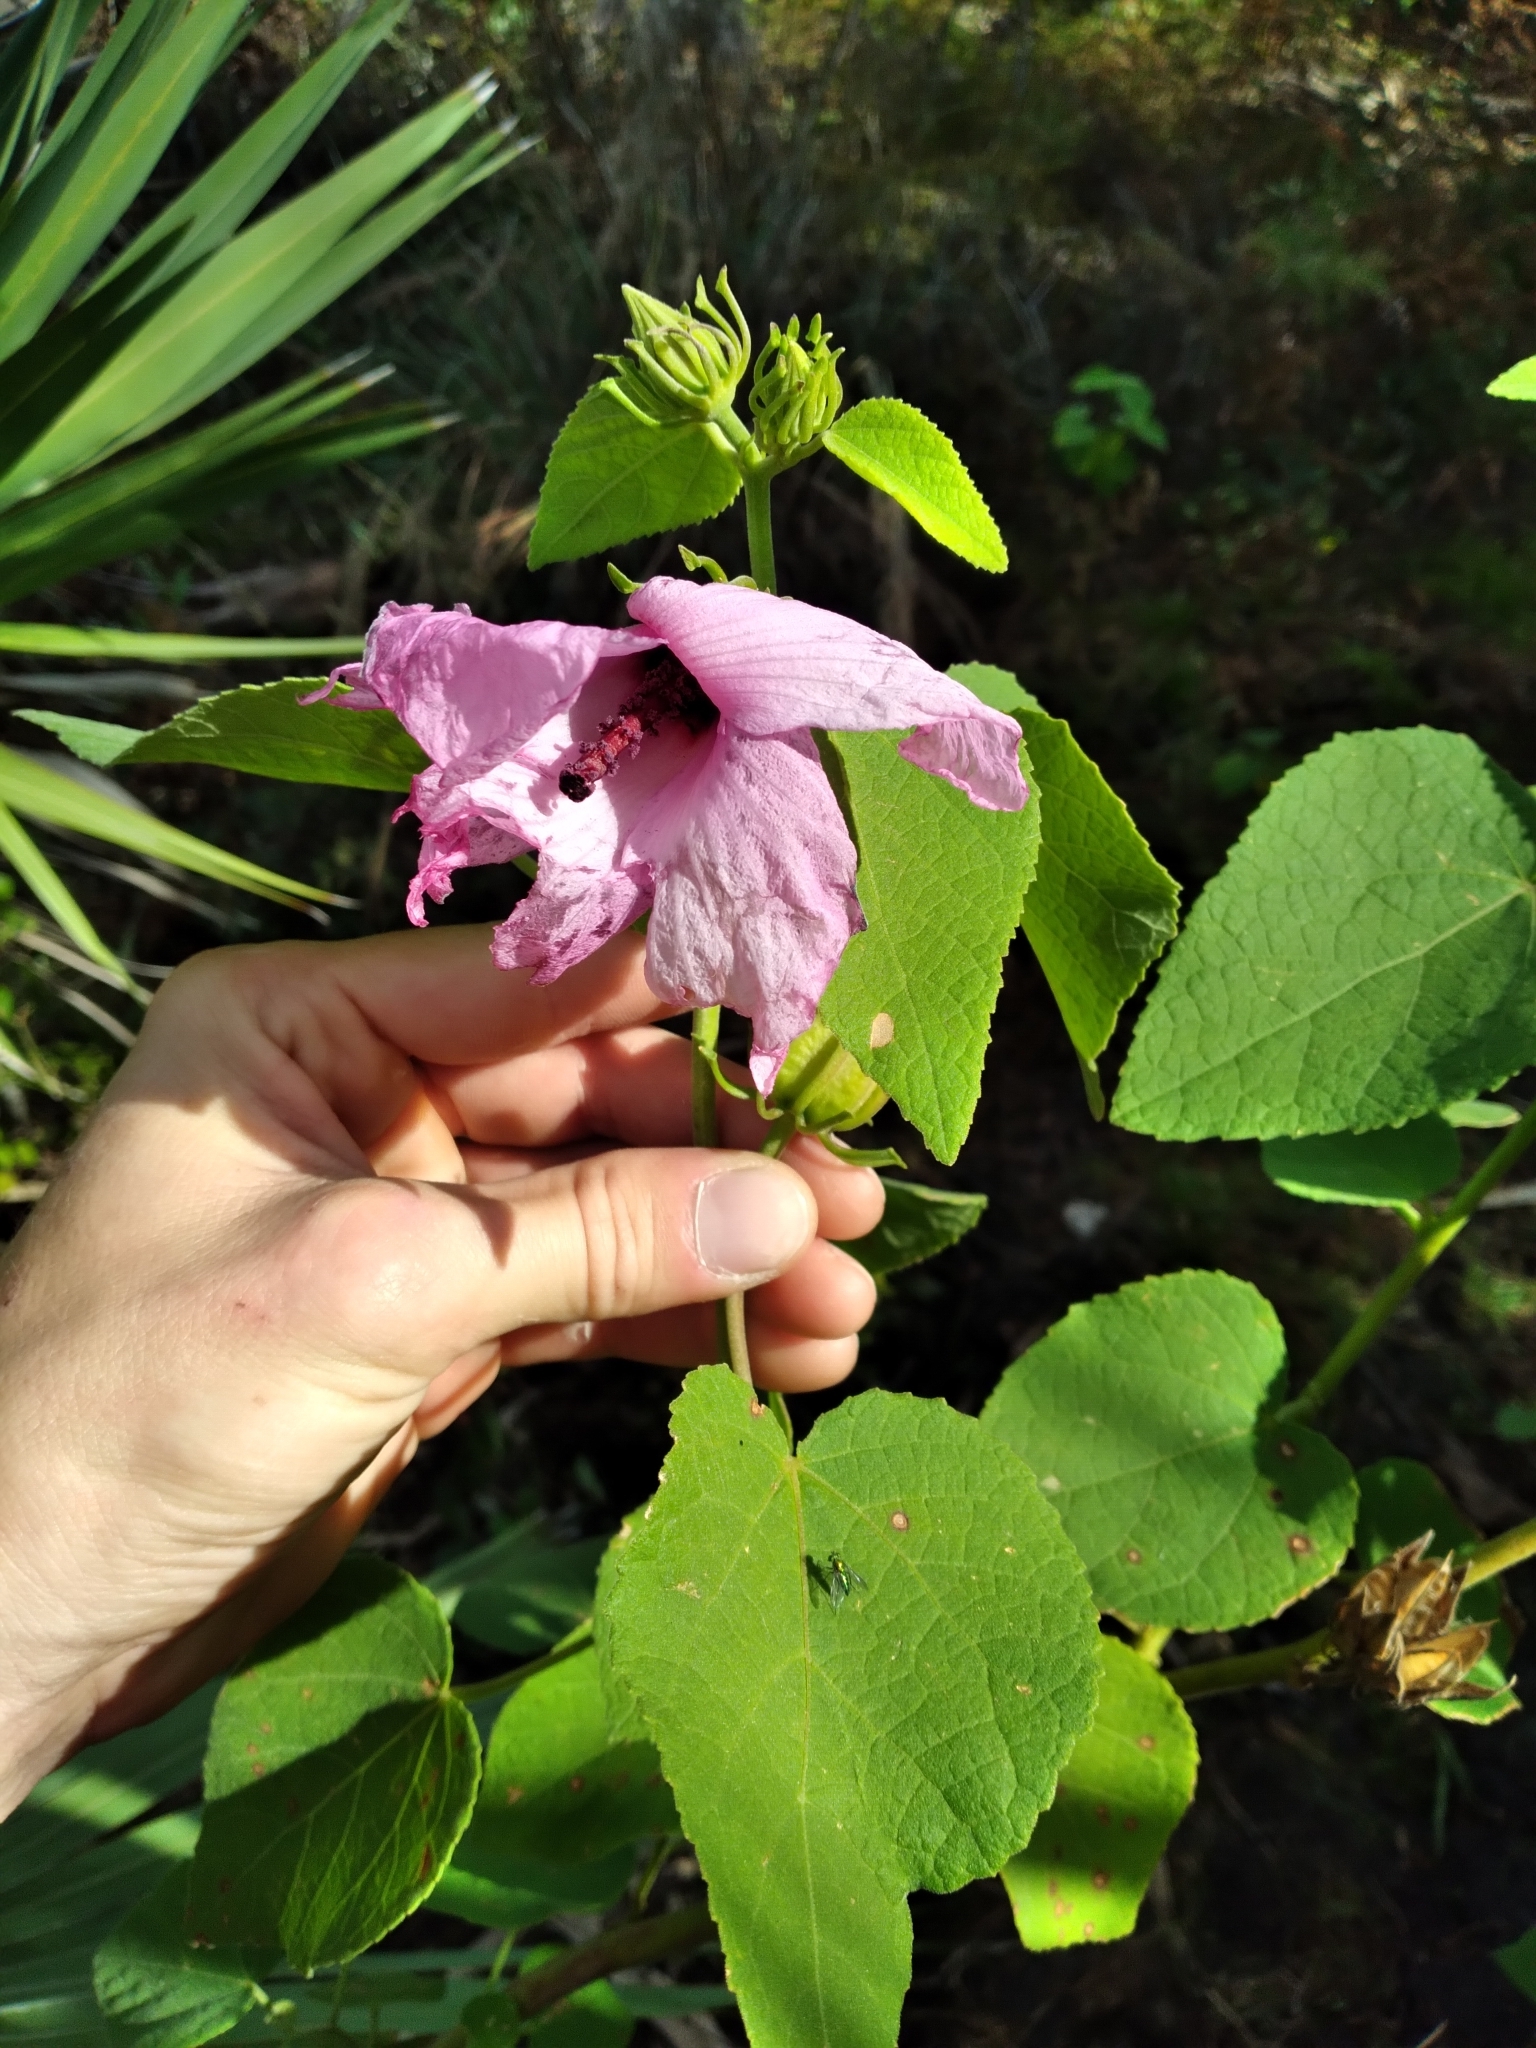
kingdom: Plantae
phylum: Tracheophyta
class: Magnoliopsida
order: Malvales
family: Malvaceae
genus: Hibiscus
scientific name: Hibiscus furcellatus
